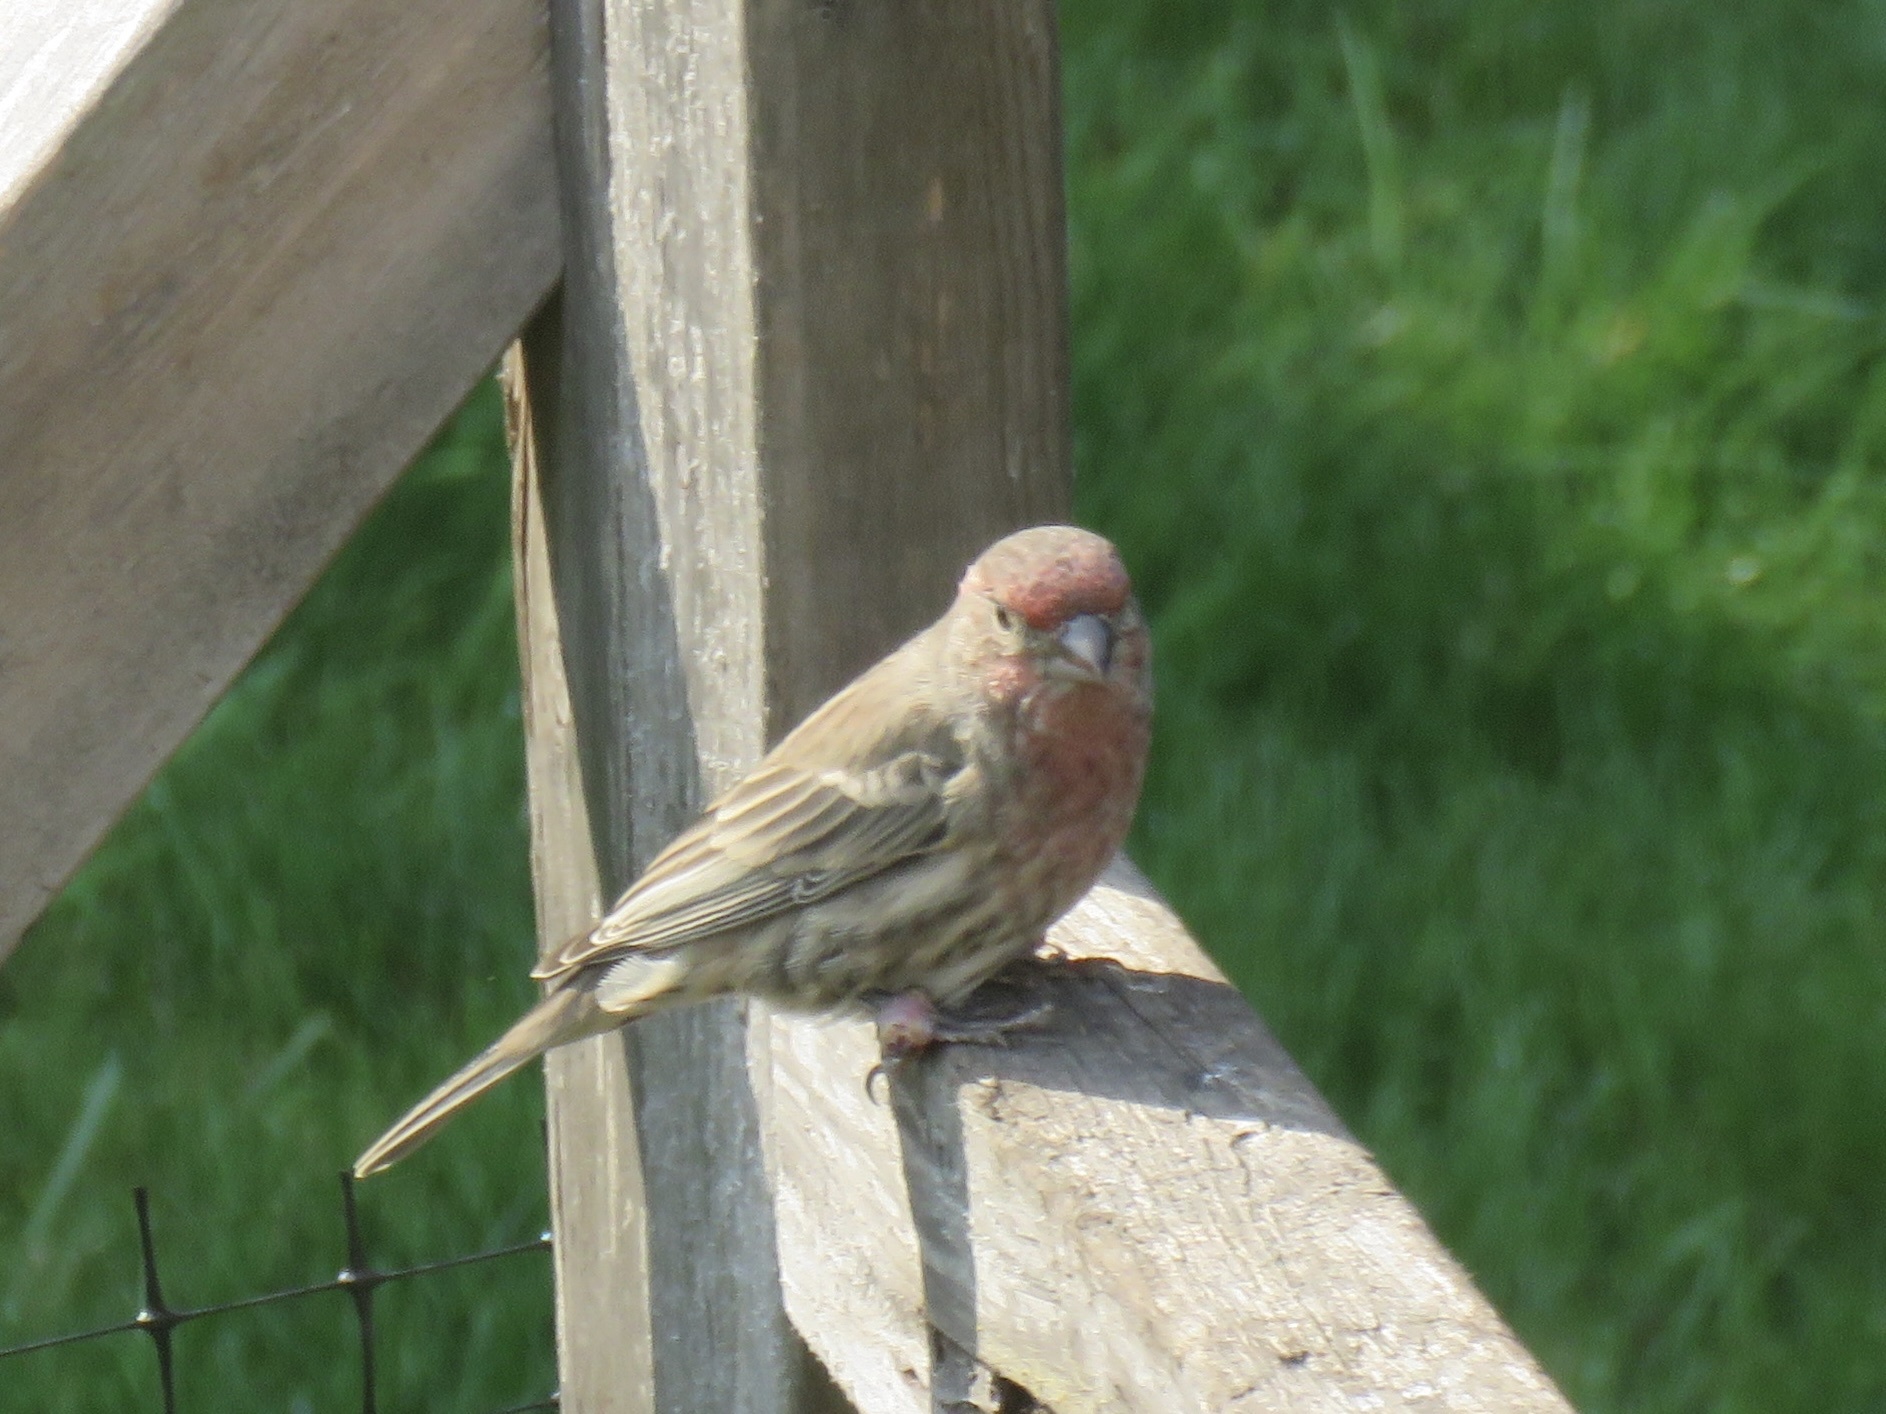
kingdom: Animalia
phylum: Chordata
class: Aves
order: Passeriformes
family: Fringillidae
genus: Haemorhous
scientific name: Haemorhous mexicanus
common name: House finch
